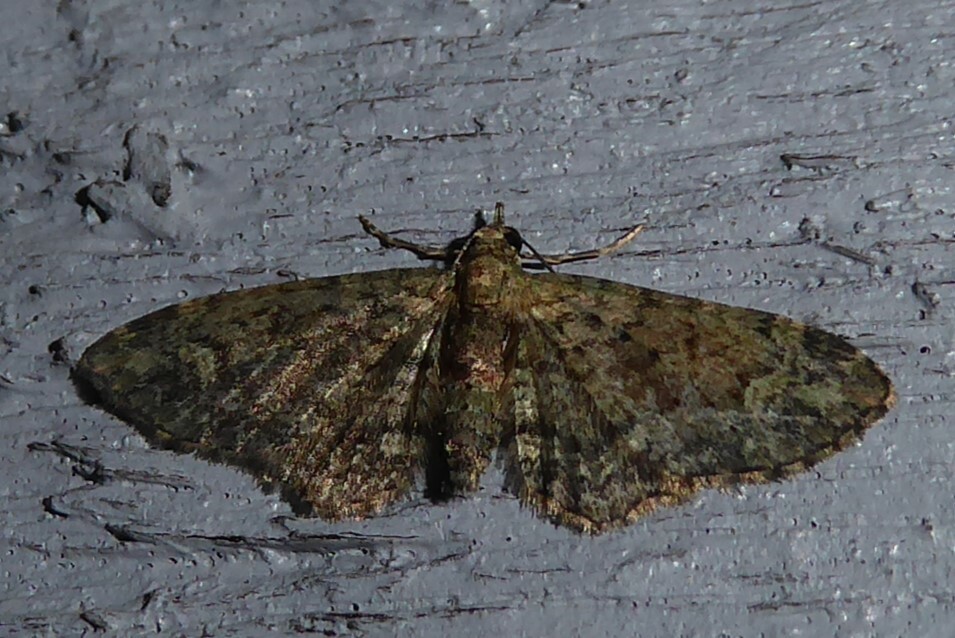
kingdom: Animalia
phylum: Arthropoda
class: Insecta
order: Lepidoptera
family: Geometridae
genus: Pasiphilodes
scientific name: Pasiphilodes testulata
